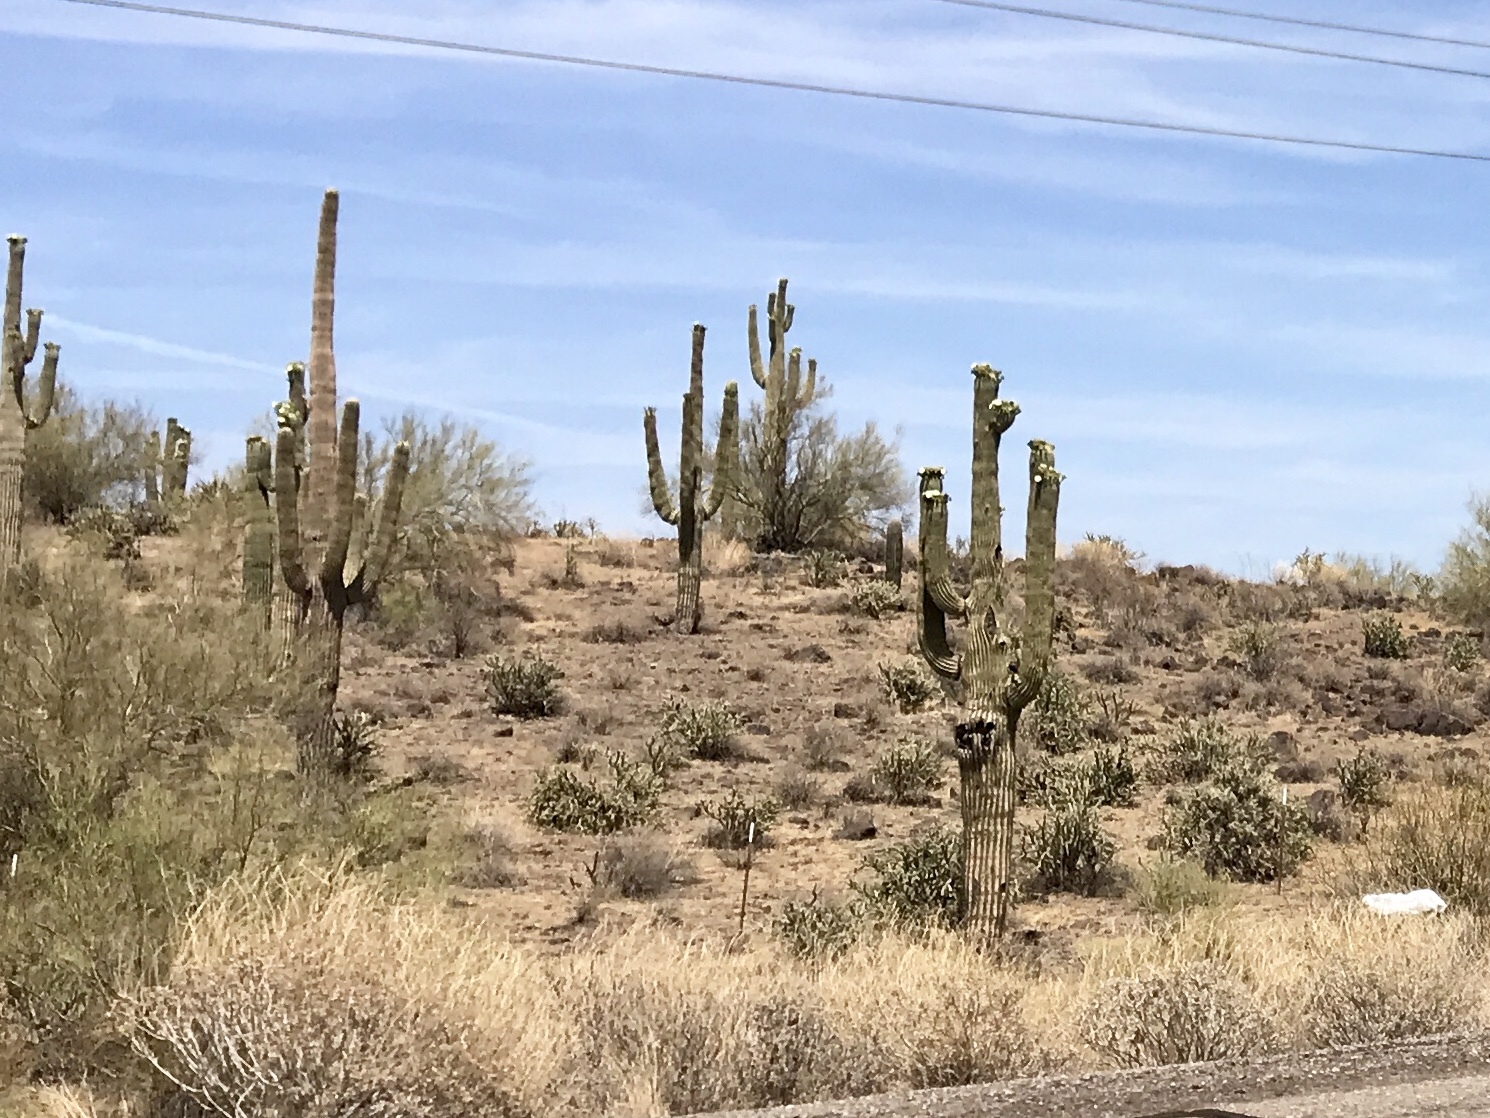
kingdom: Plantae
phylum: Tracheophyta
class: Magnoliopsida
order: Caryophyllales
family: Cactaceae
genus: Carnegiea
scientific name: Carnegiea gigantea
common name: Saguaro
